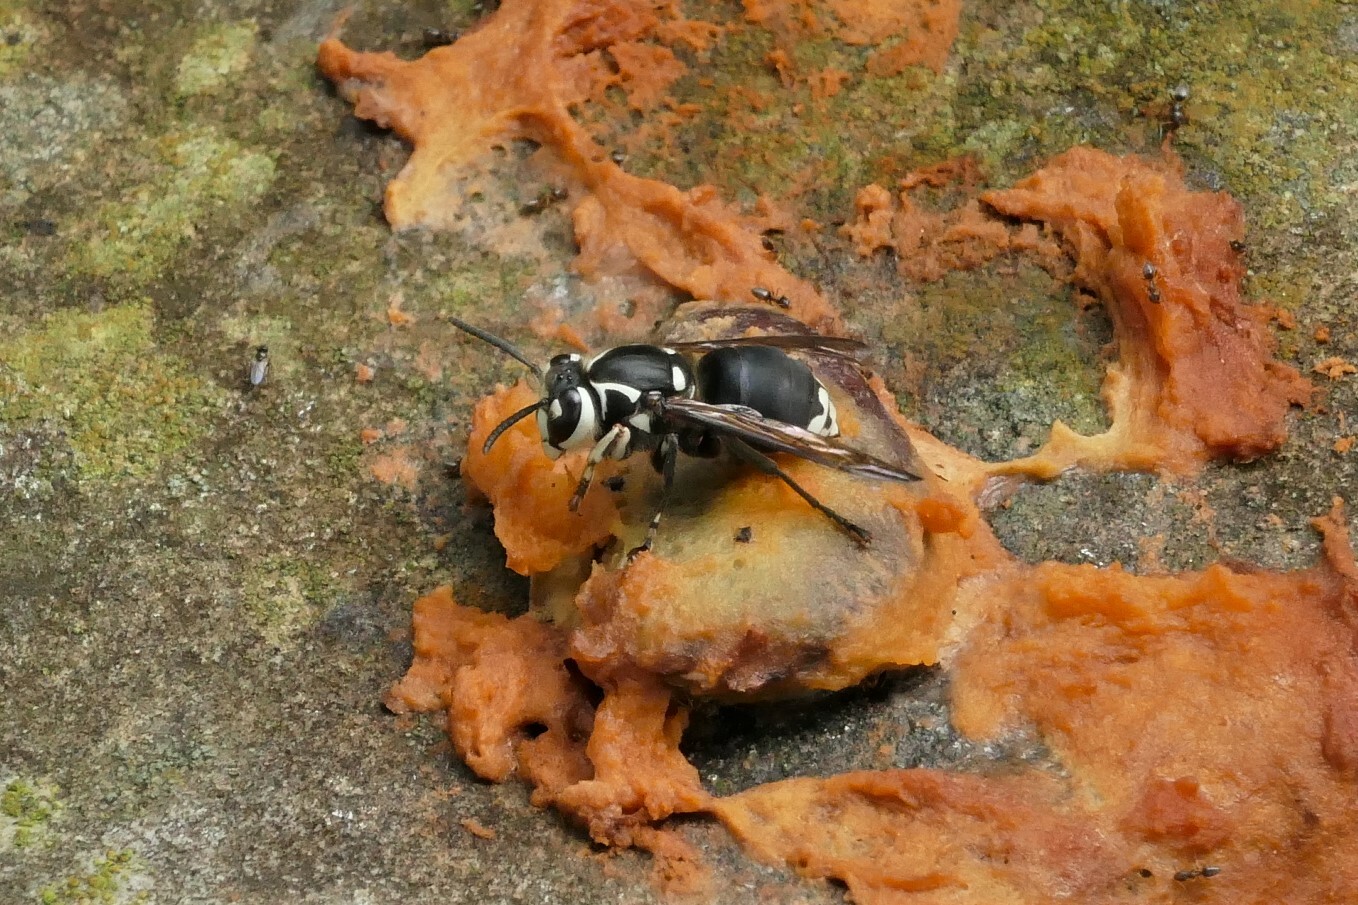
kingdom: Animalia
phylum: Arthropoda
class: Insecta
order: Hymenoptera
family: Vespidae
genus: Dolichovespula
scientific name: Dolichovespula maculata
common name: Bald-faced hornet
